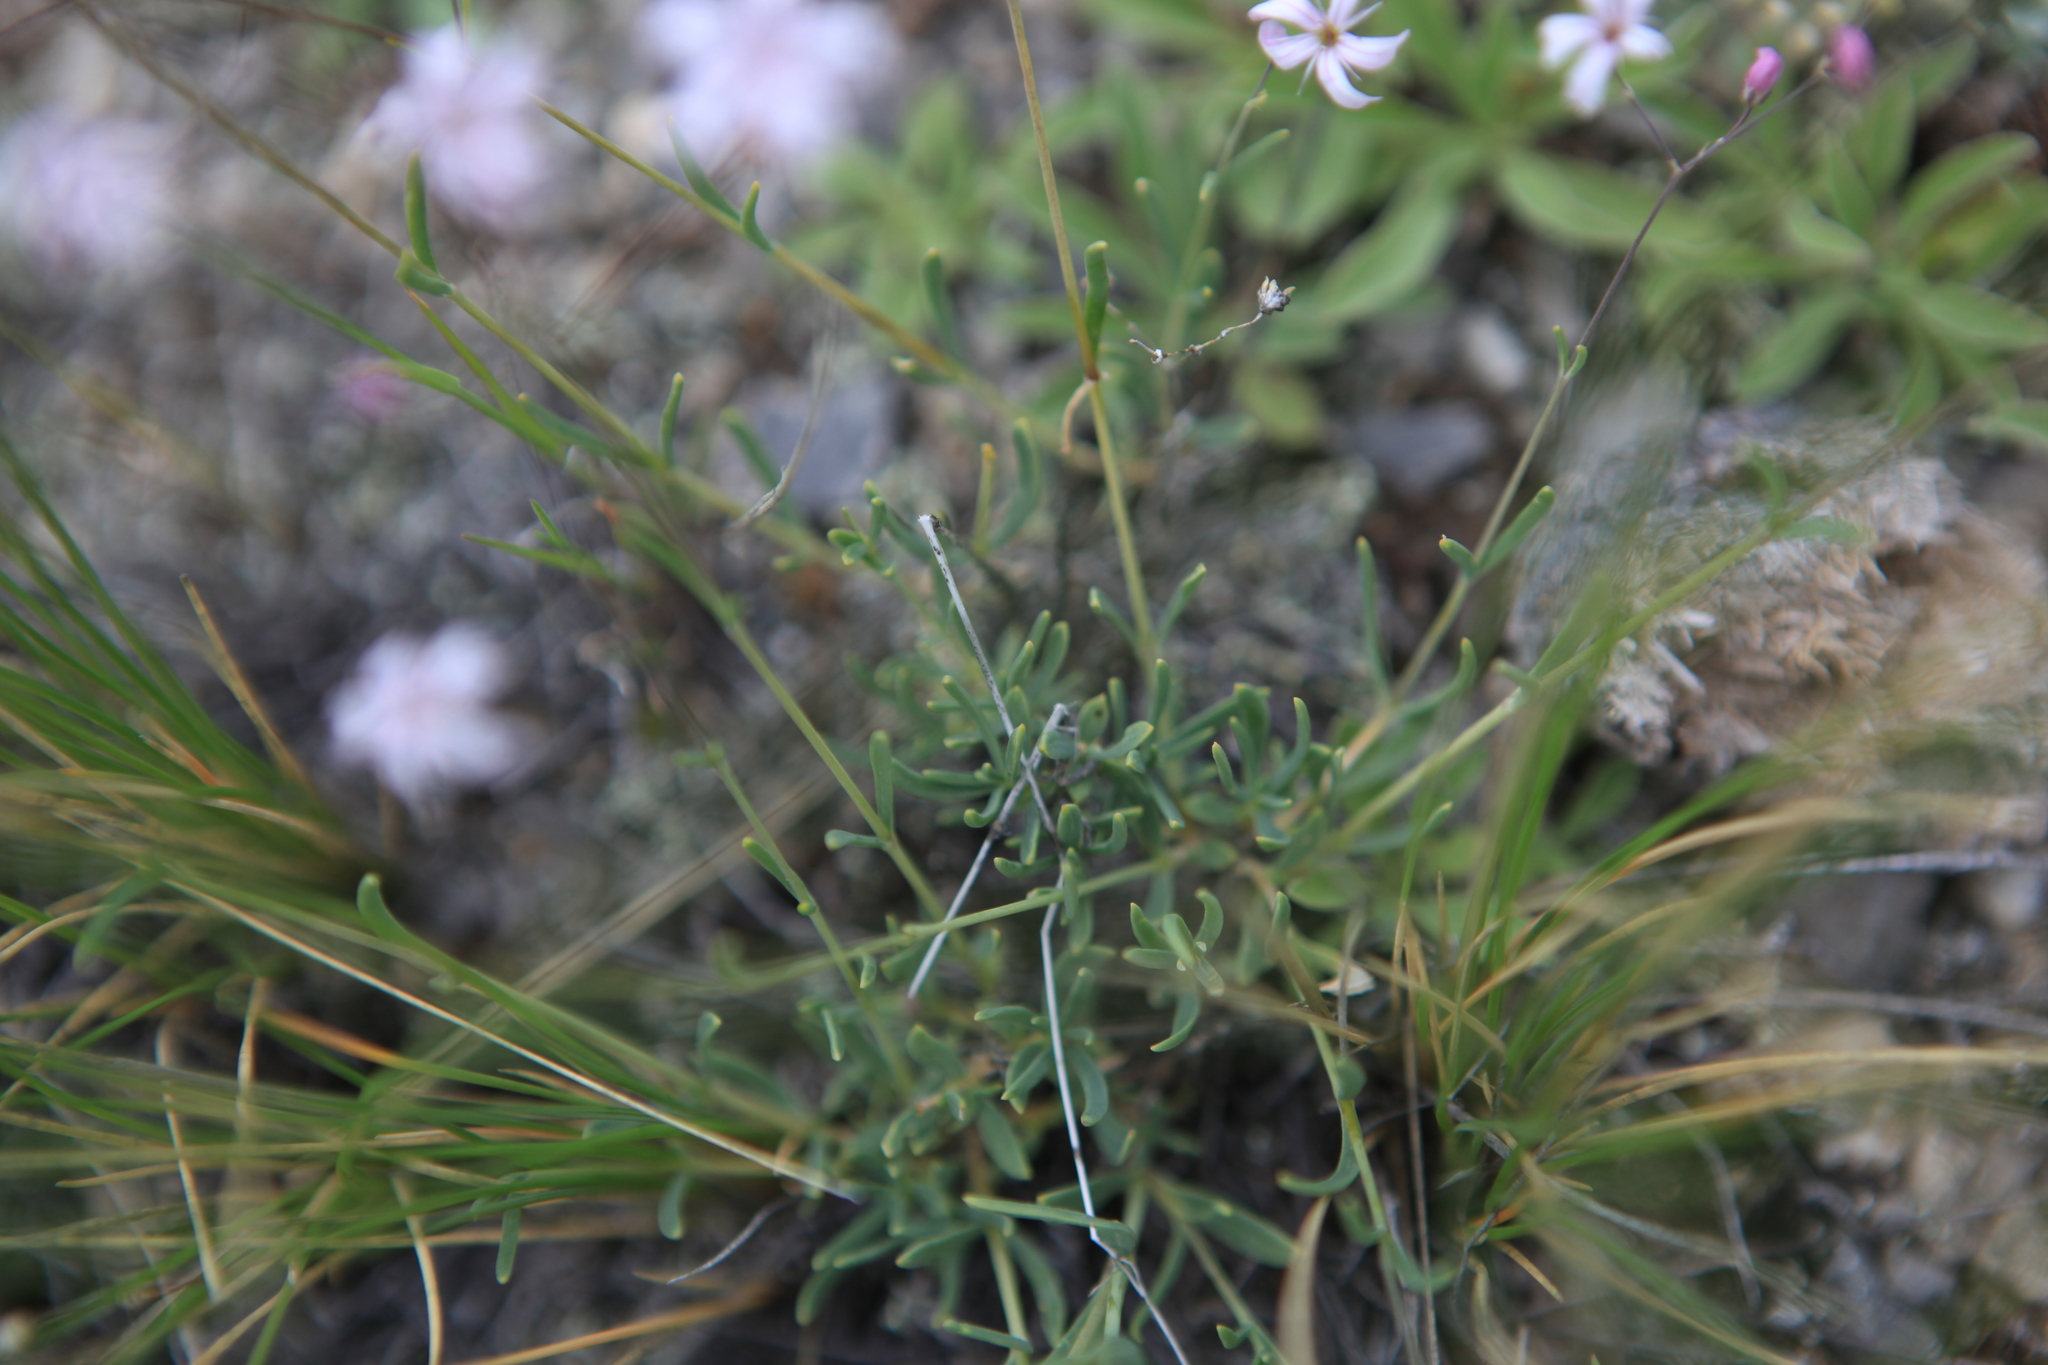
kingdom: Plantae
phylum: Tracheophyta
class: Magnoliopsida
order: Caryophyllales
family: Caryophyllaceae
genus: Gypsophila
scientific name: Gypsophila patrinii
